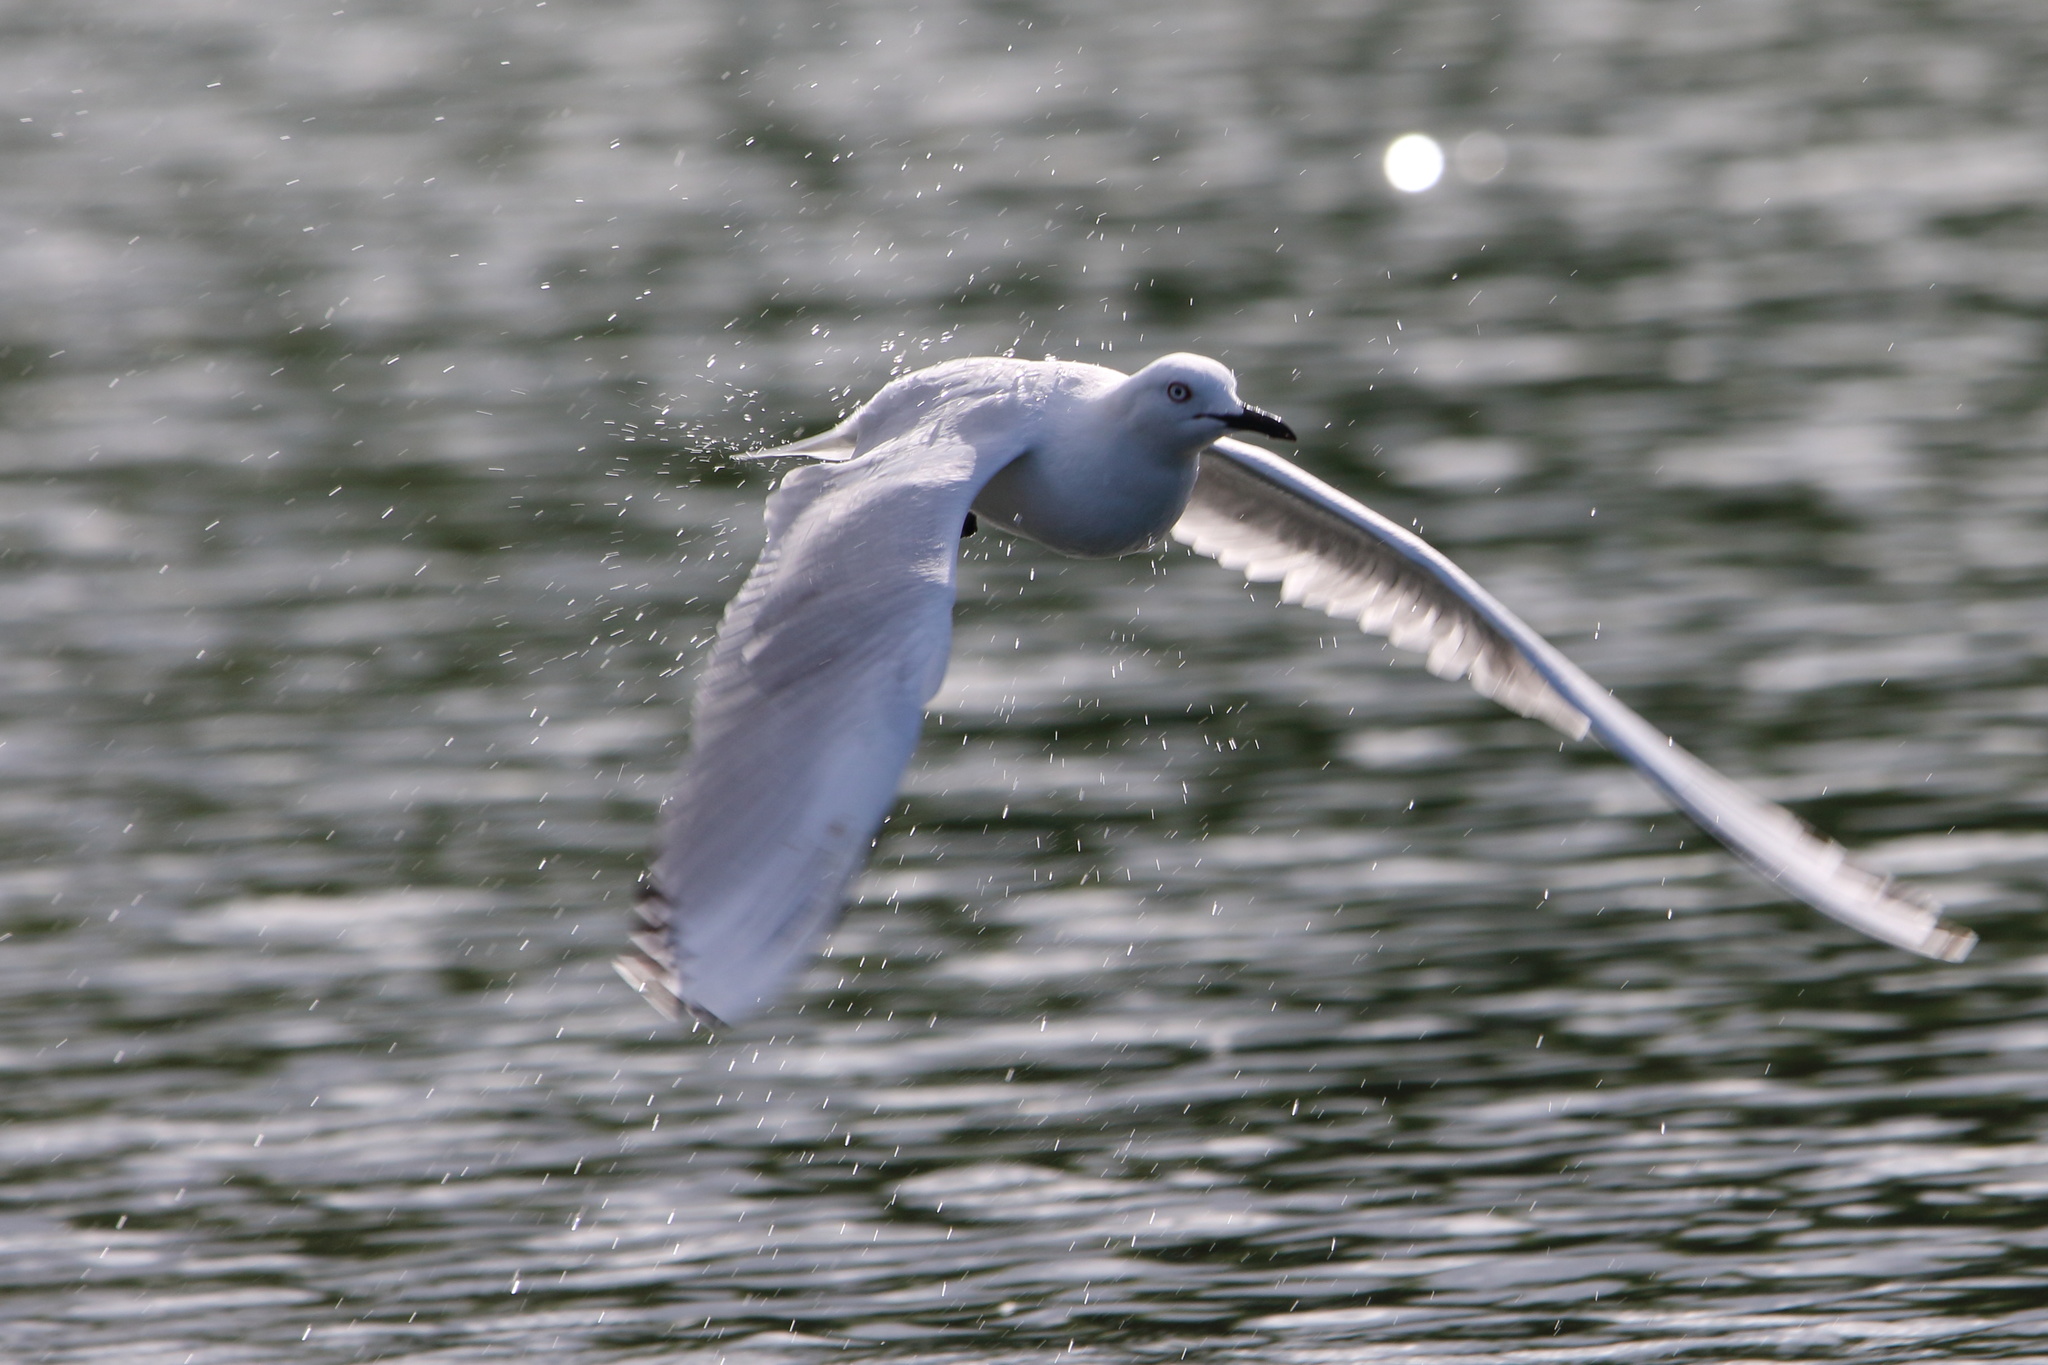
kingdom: Animalia
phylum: Chordata
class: Aves
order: Charadriiformes
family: Laridae
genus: Chroicocephalus
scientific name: Chroicocephalus bulleri
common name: Black-billed gull
